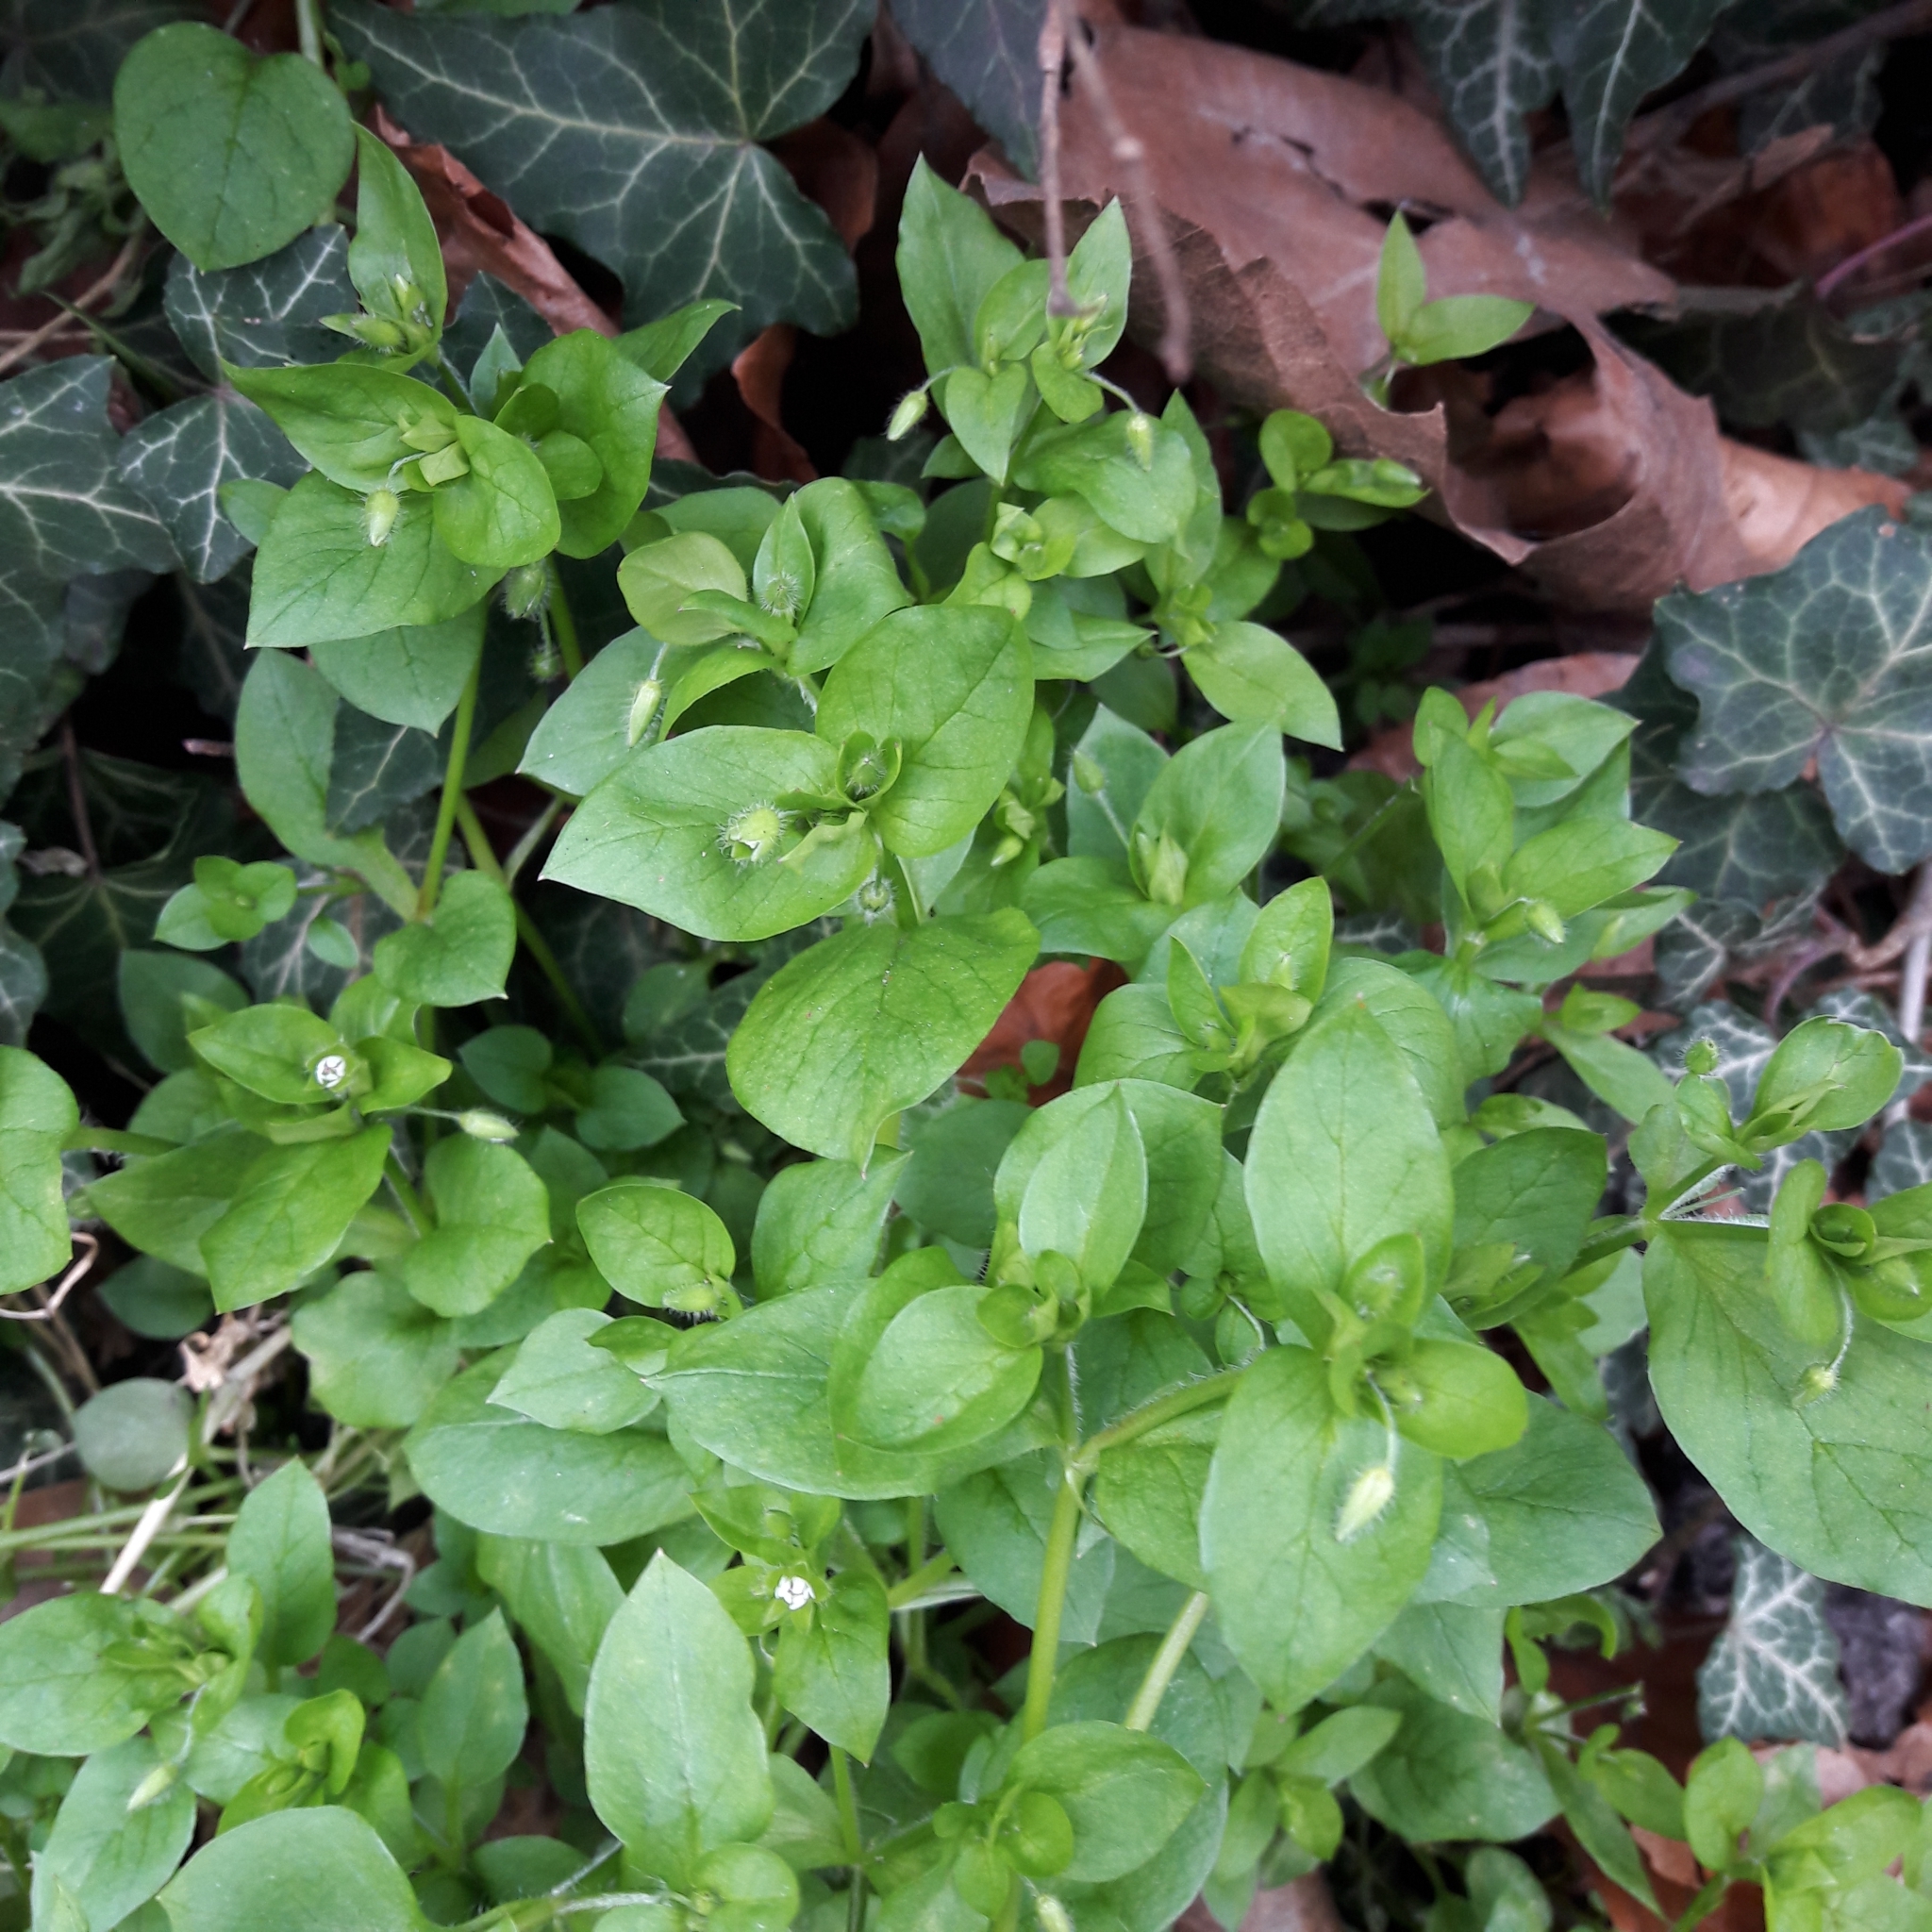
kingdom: Plantae
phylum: Tracheophyta
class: Magnoliopsida
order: Caryophyllales
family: Caryophyllaceae
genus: Stellaria
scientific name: Stellaria media
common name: Common chickweed
